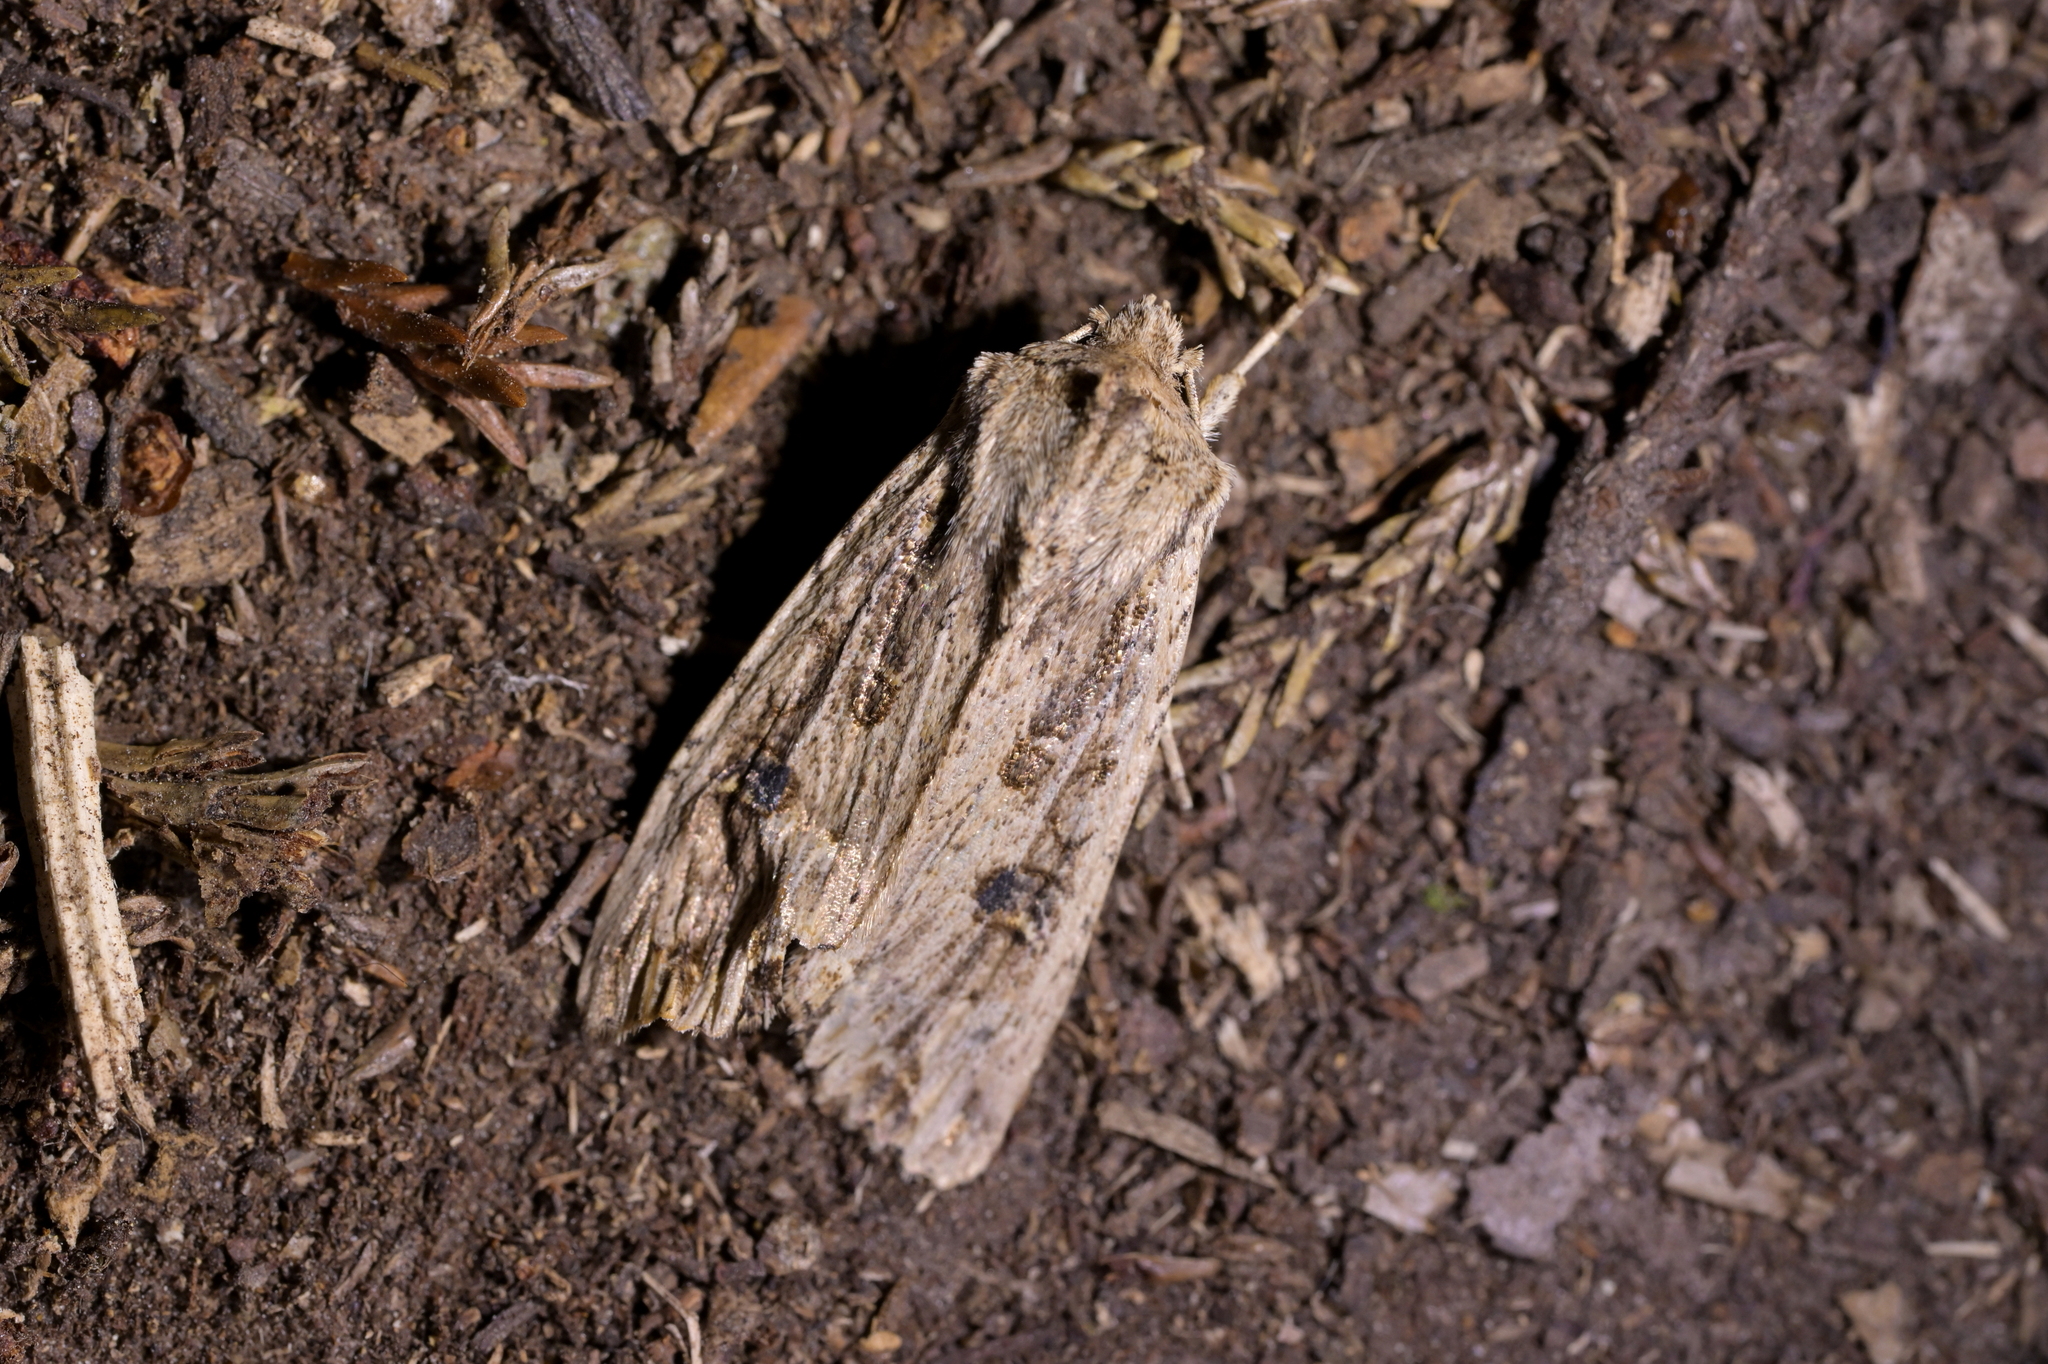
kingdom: Animalia
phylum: Arthropoda
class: Insecta
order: Lepidoptera
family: Noctuidae
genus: Ichneutica
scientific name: Ichneutica lignana
